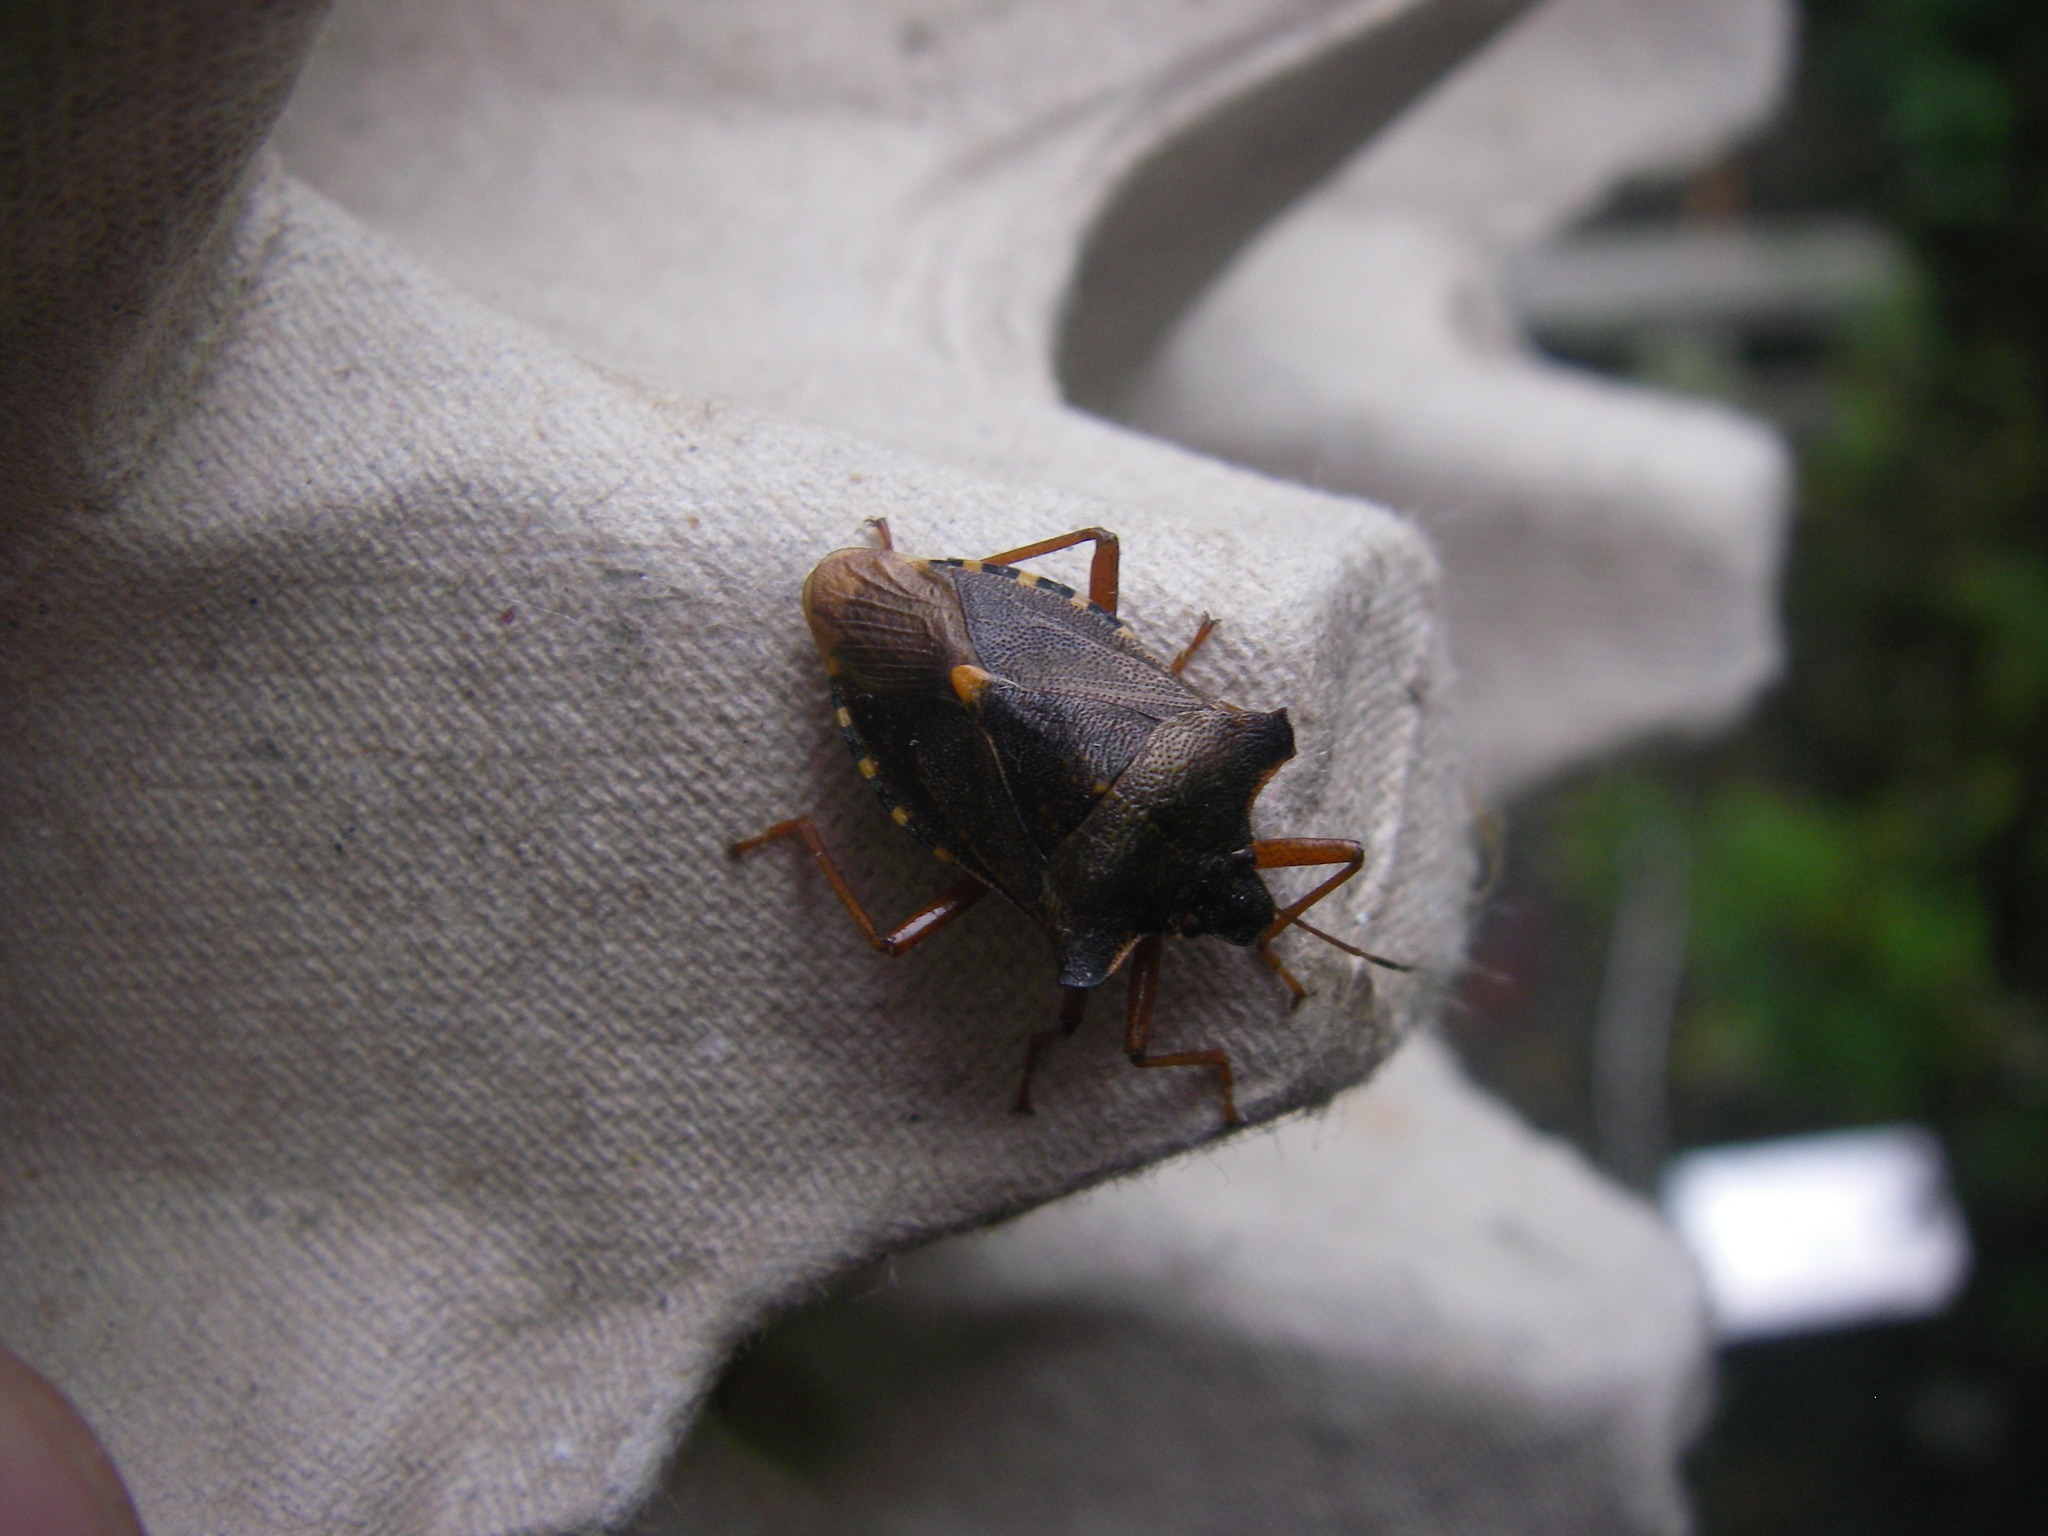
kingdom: Animalia
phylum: Arthropoda
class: Insecta
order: Hemiptera
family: Pentatomidae
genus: Pentatoma
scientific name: Pentatoma rufipes
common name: Forest bug
